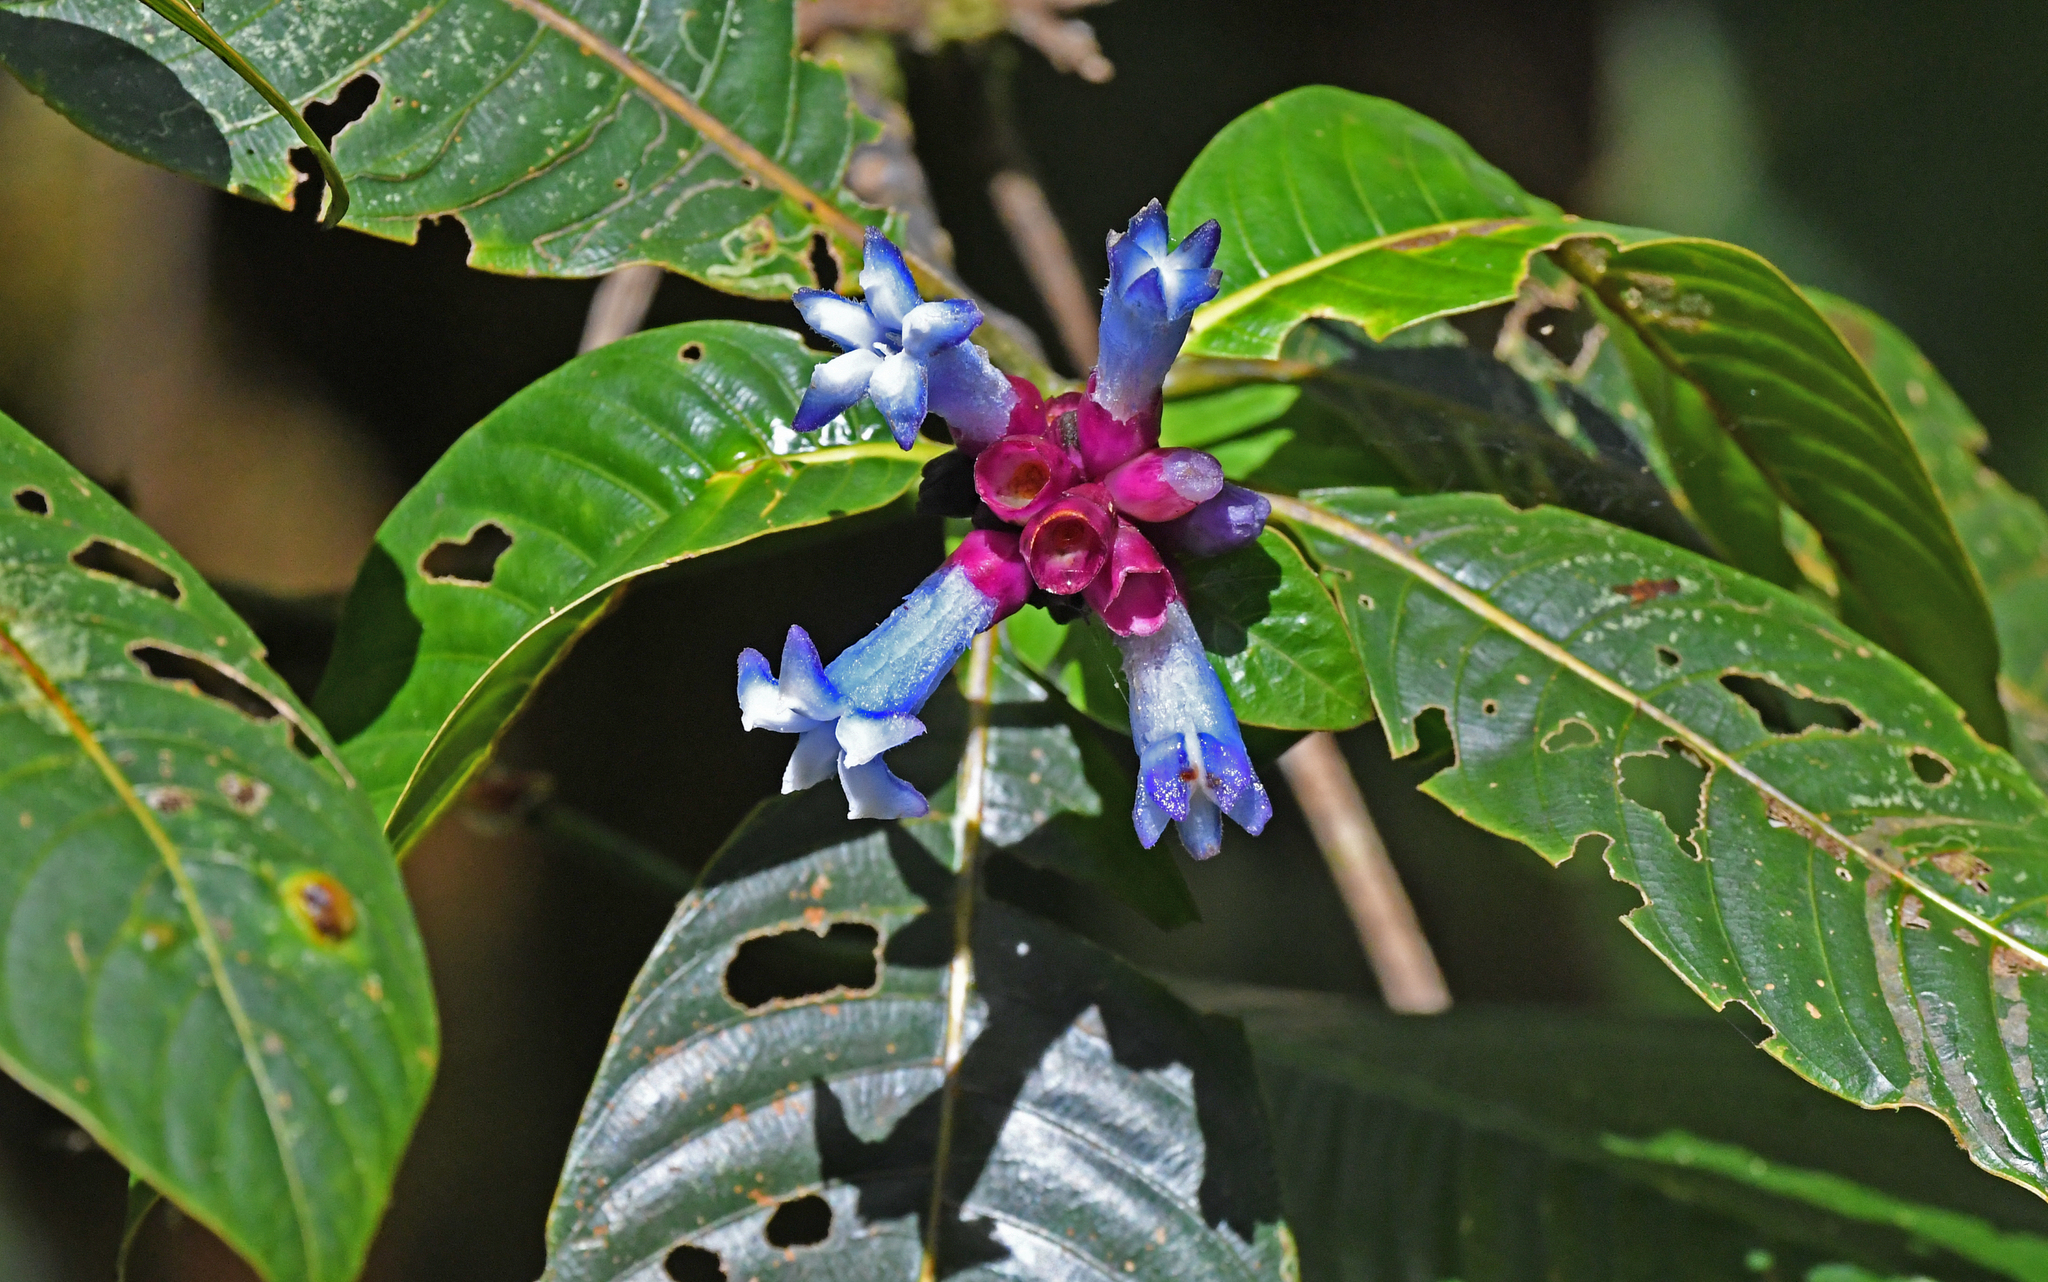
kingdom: Plantae
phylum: Tracheophyta
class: Magnoliopsida
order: Gentianales
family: Rubiaceae
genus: Palicourea
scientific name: Palicourea thermydri
